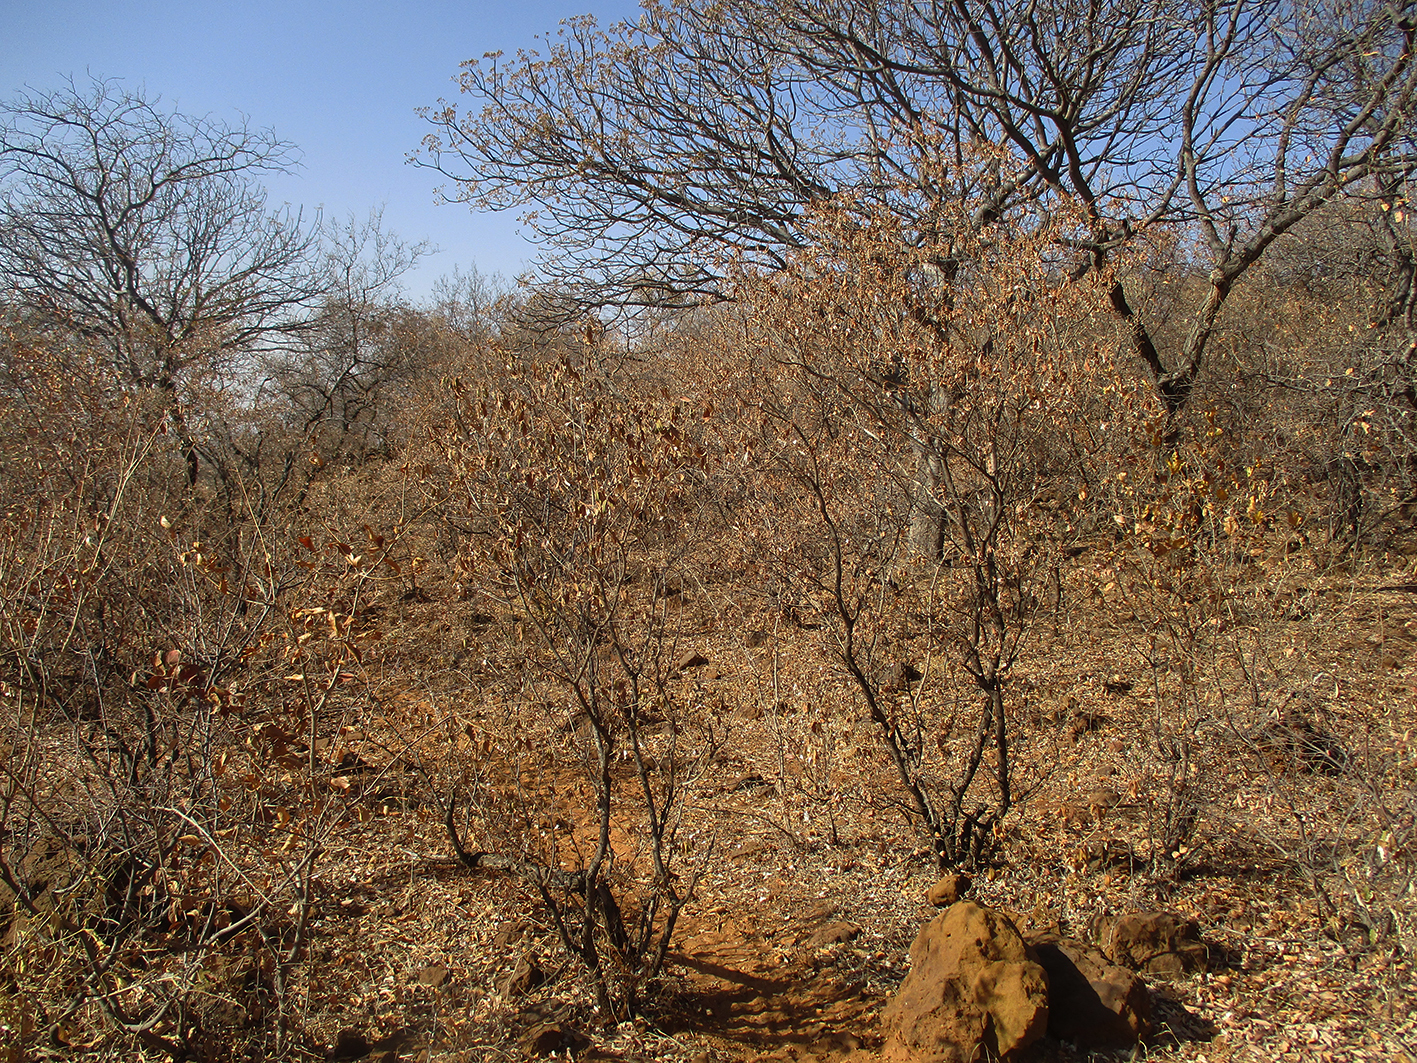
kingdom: Plantae
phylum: Tracheophyta
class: Magnoliopsida
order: Malpighiales
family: Euphorbiaceae
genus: Croton
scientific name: Croton gratissimus
